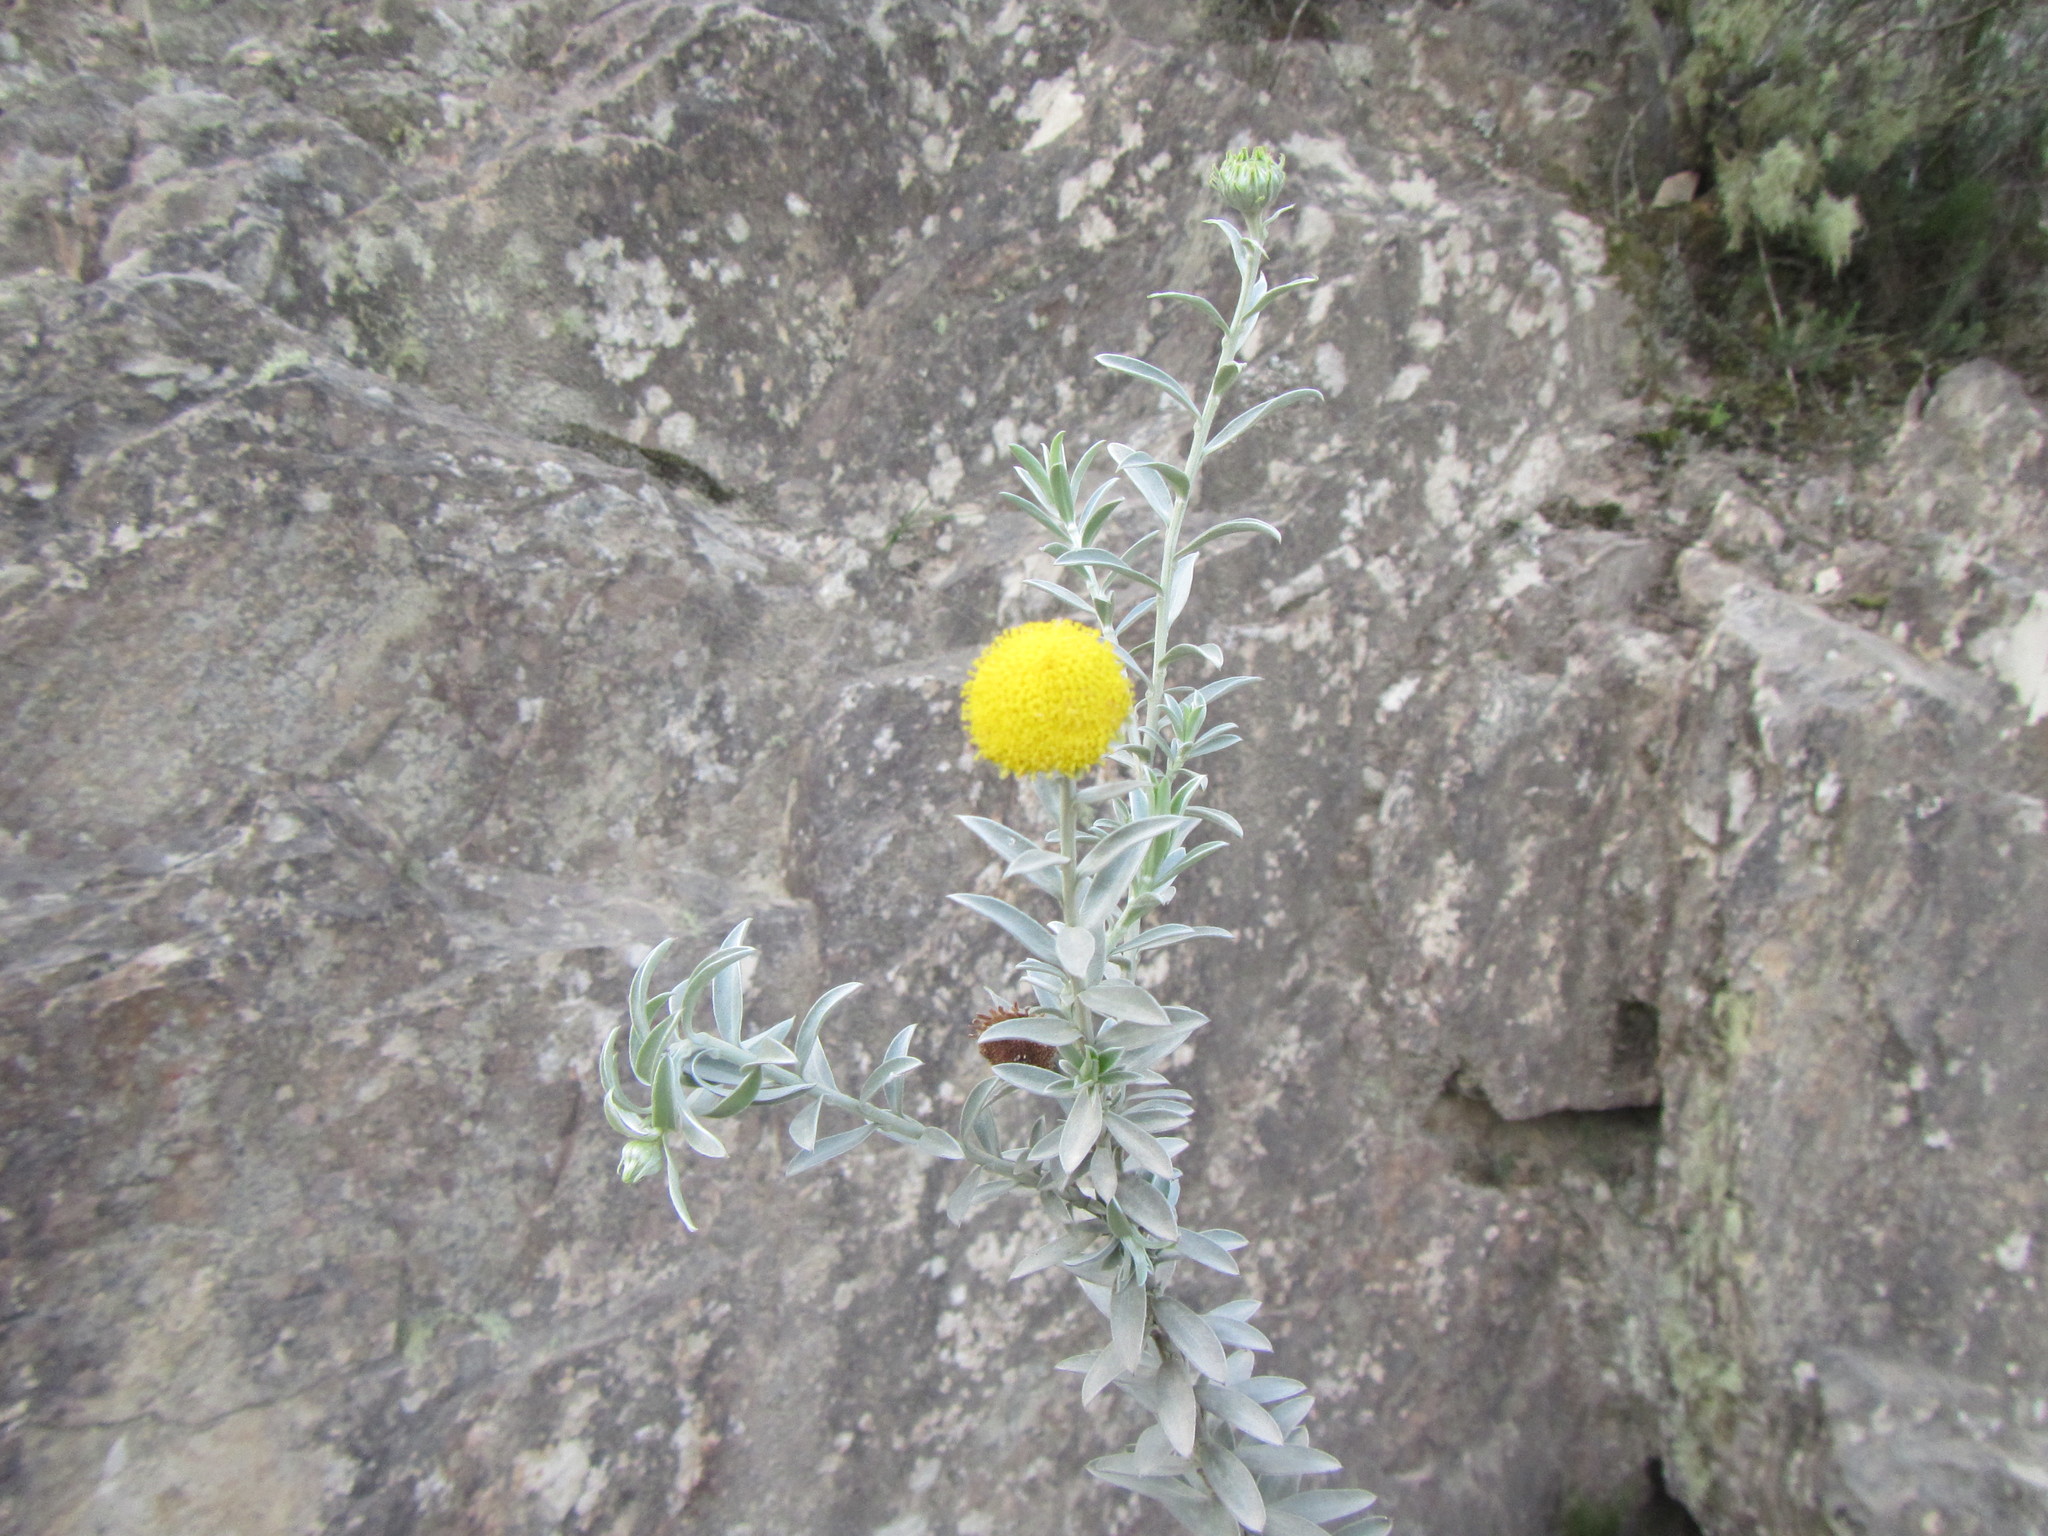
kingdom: Plantae
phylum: Tracheophyta
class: Magnoliopsida
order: Asterales
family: Asteraceae
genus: Schistostephium
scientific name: Schistostephium umbellatum
